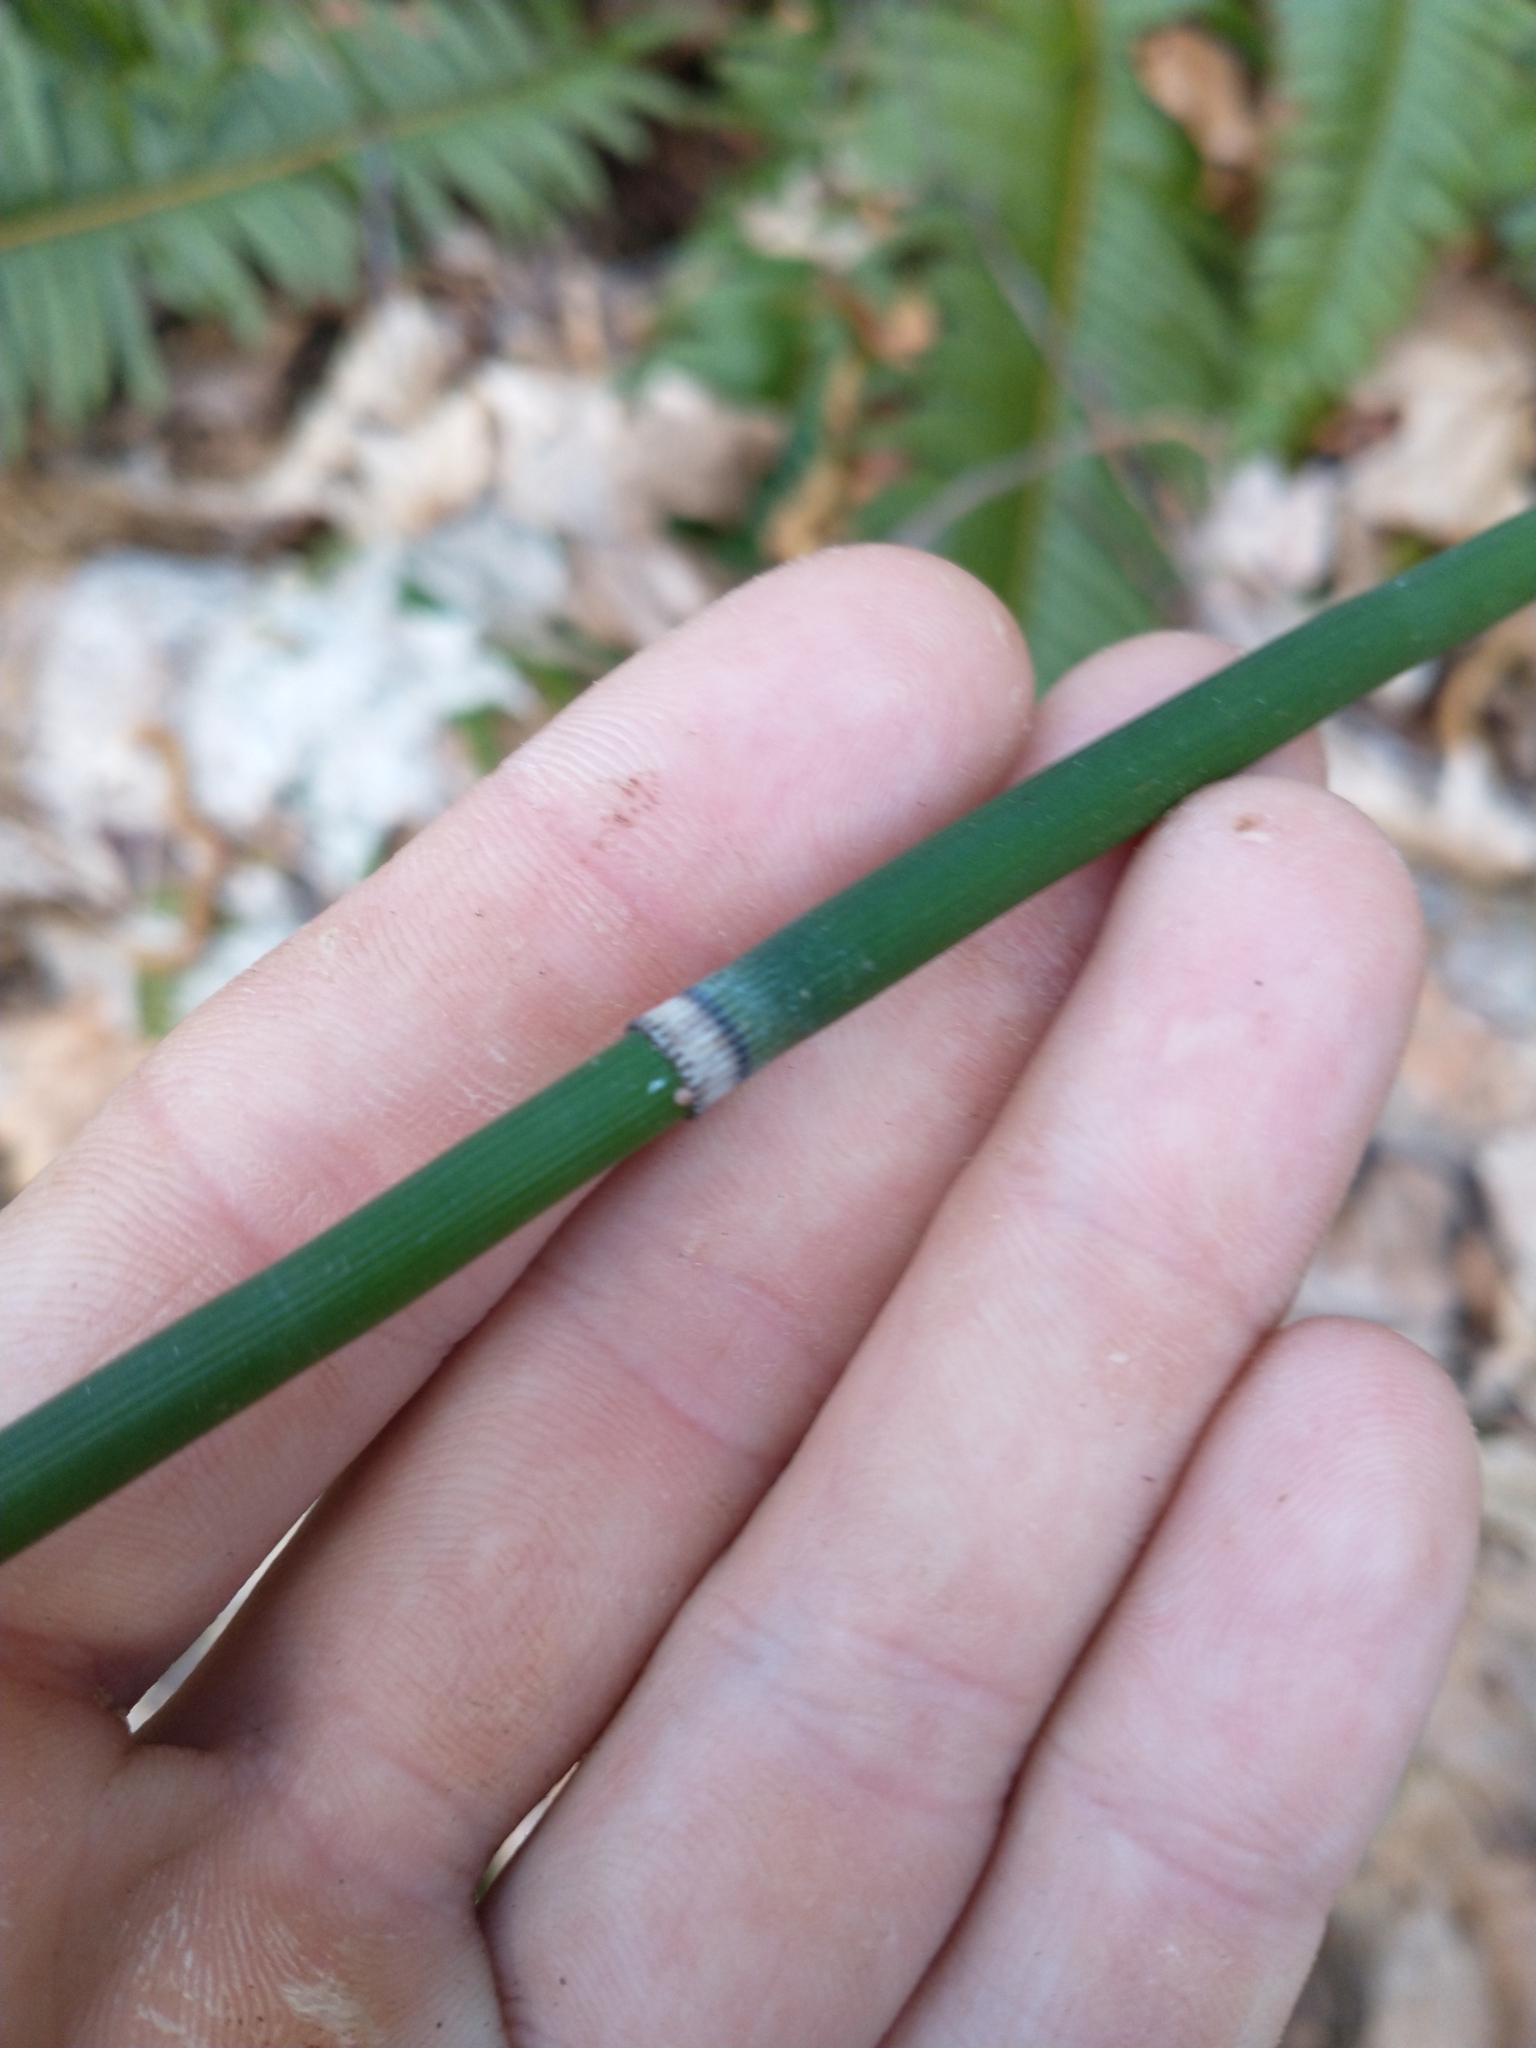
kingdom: Plantae
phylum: Tracheophyta
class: Polypodiopsida
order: Equisetales
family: Equisetaceae
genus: Equisetum
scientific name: Equisetum praealtum
